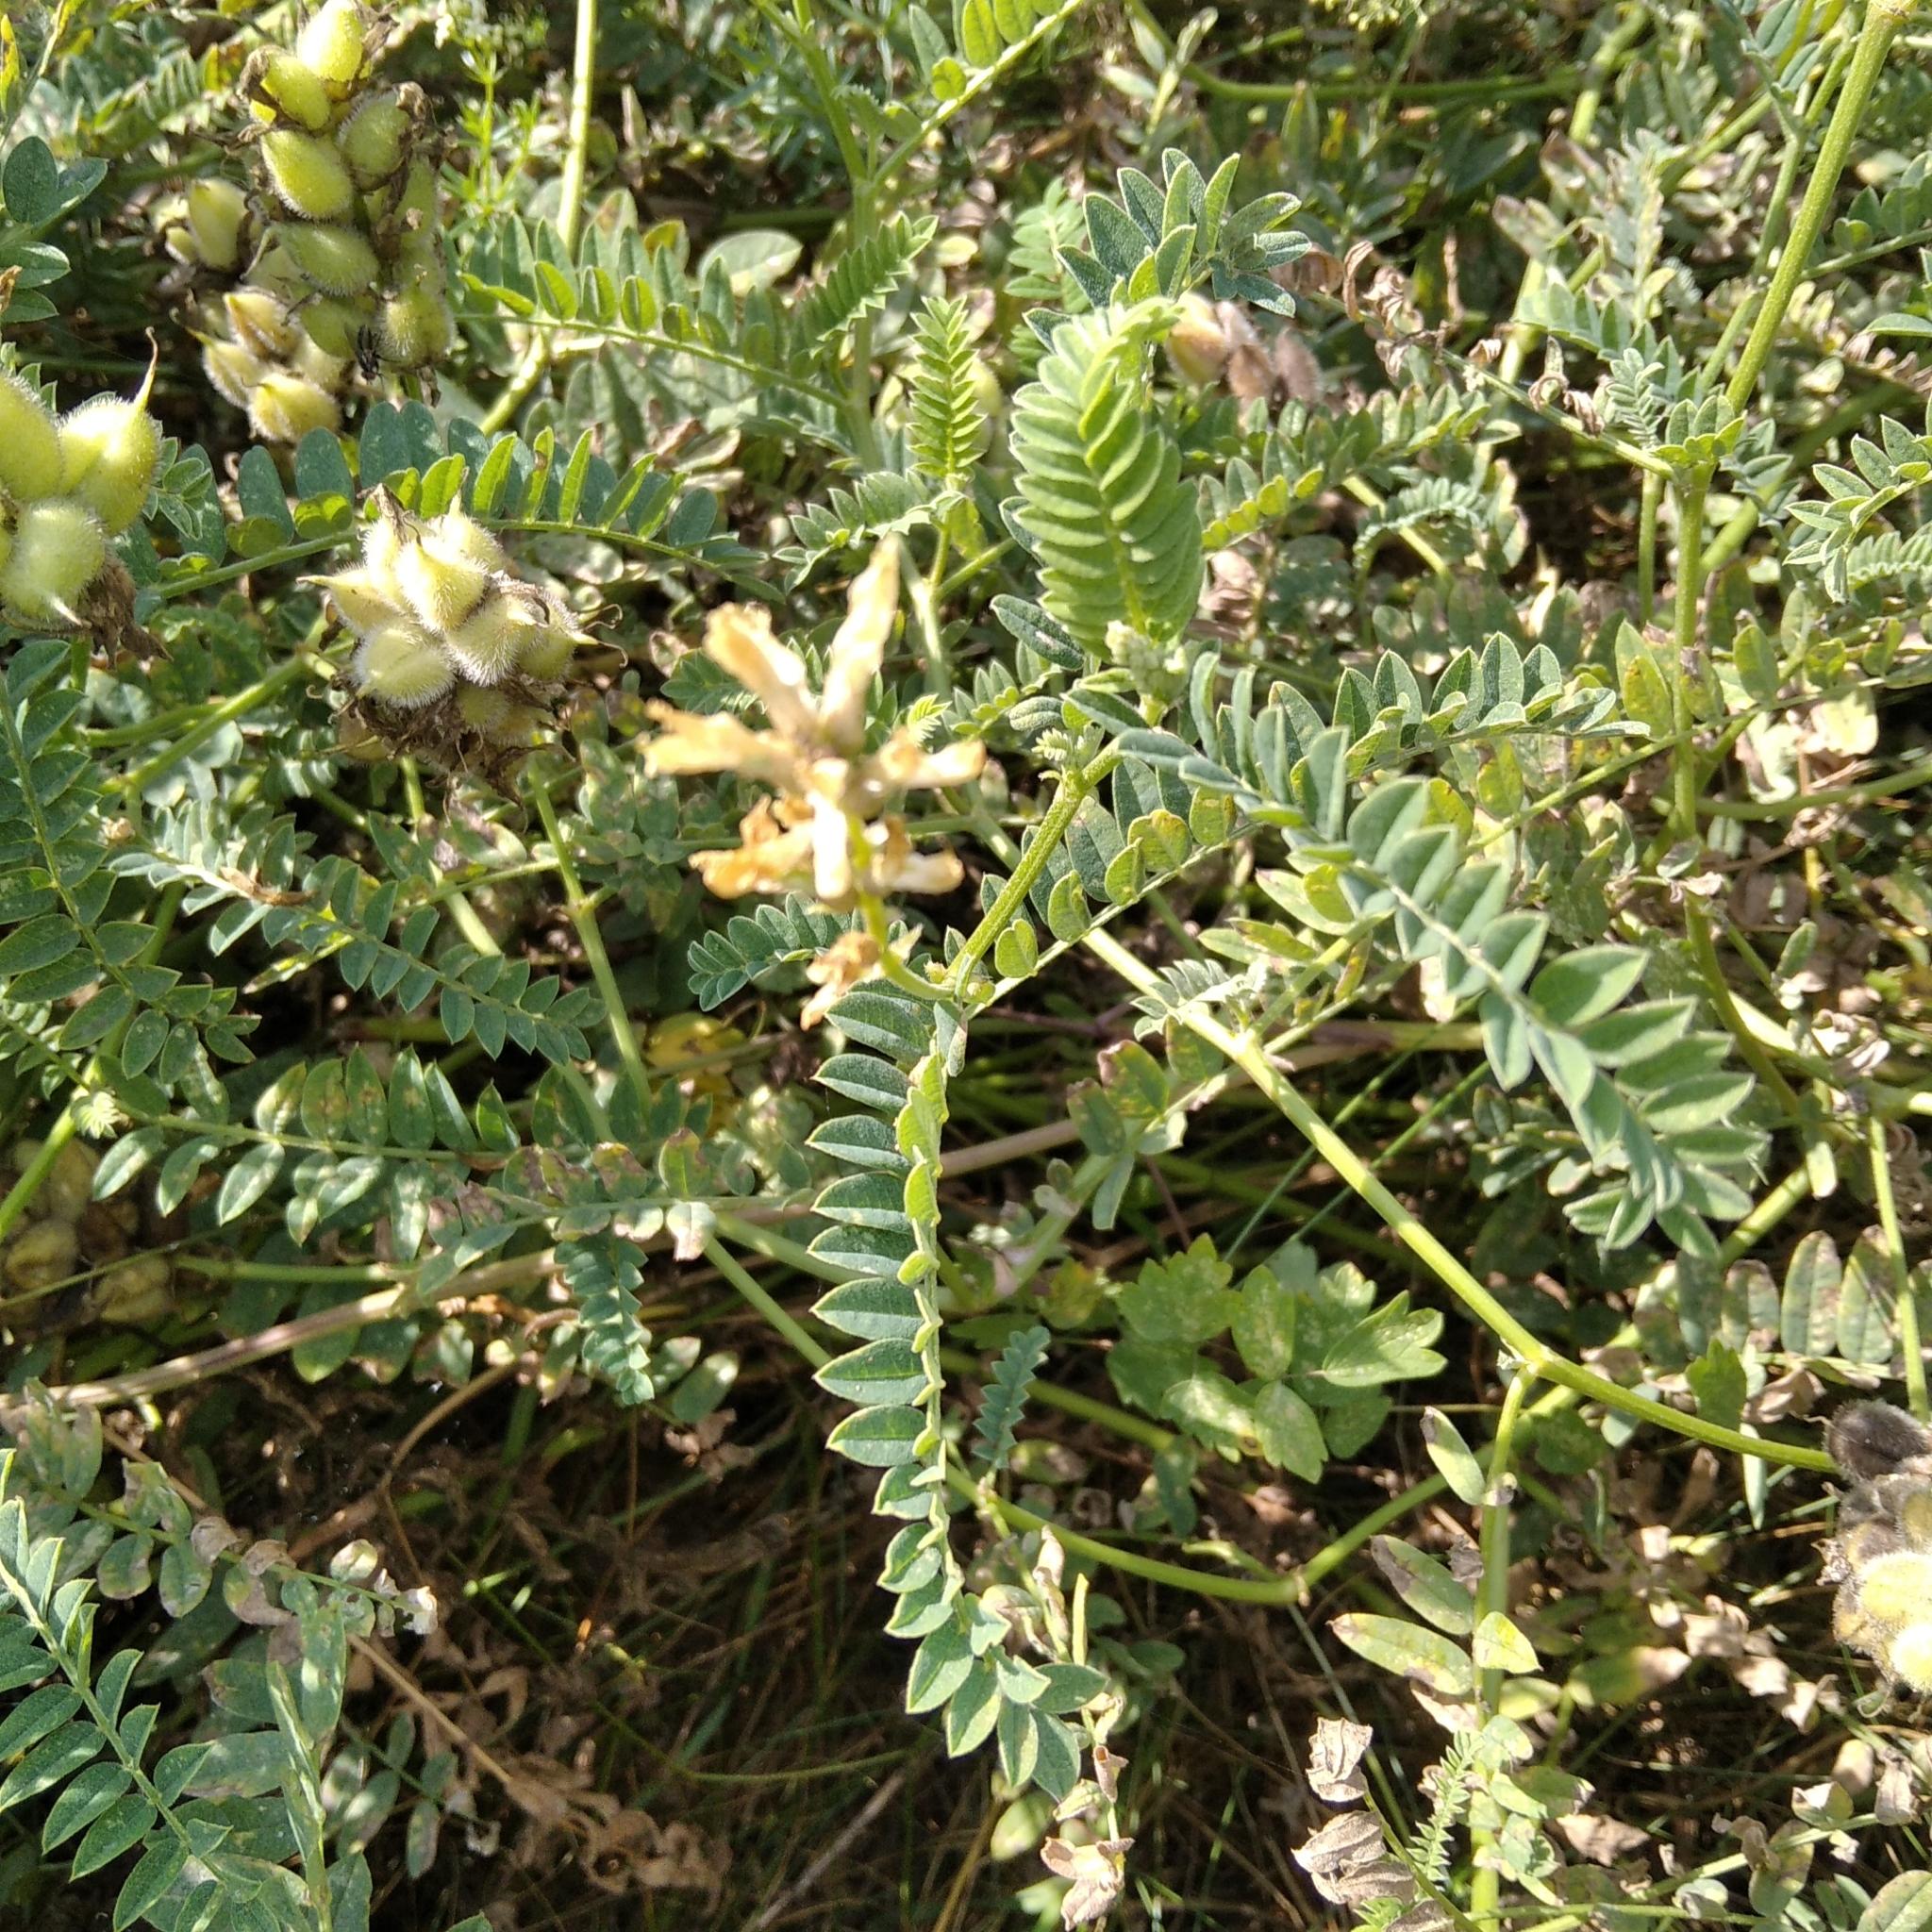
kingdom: Plantae
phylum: Tracheophyta
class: Magnoliopsida
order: Fabales
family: Fabaceae
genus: Astragalus
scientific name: Astragalus cicer
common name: Chick-pea milk-vetch
